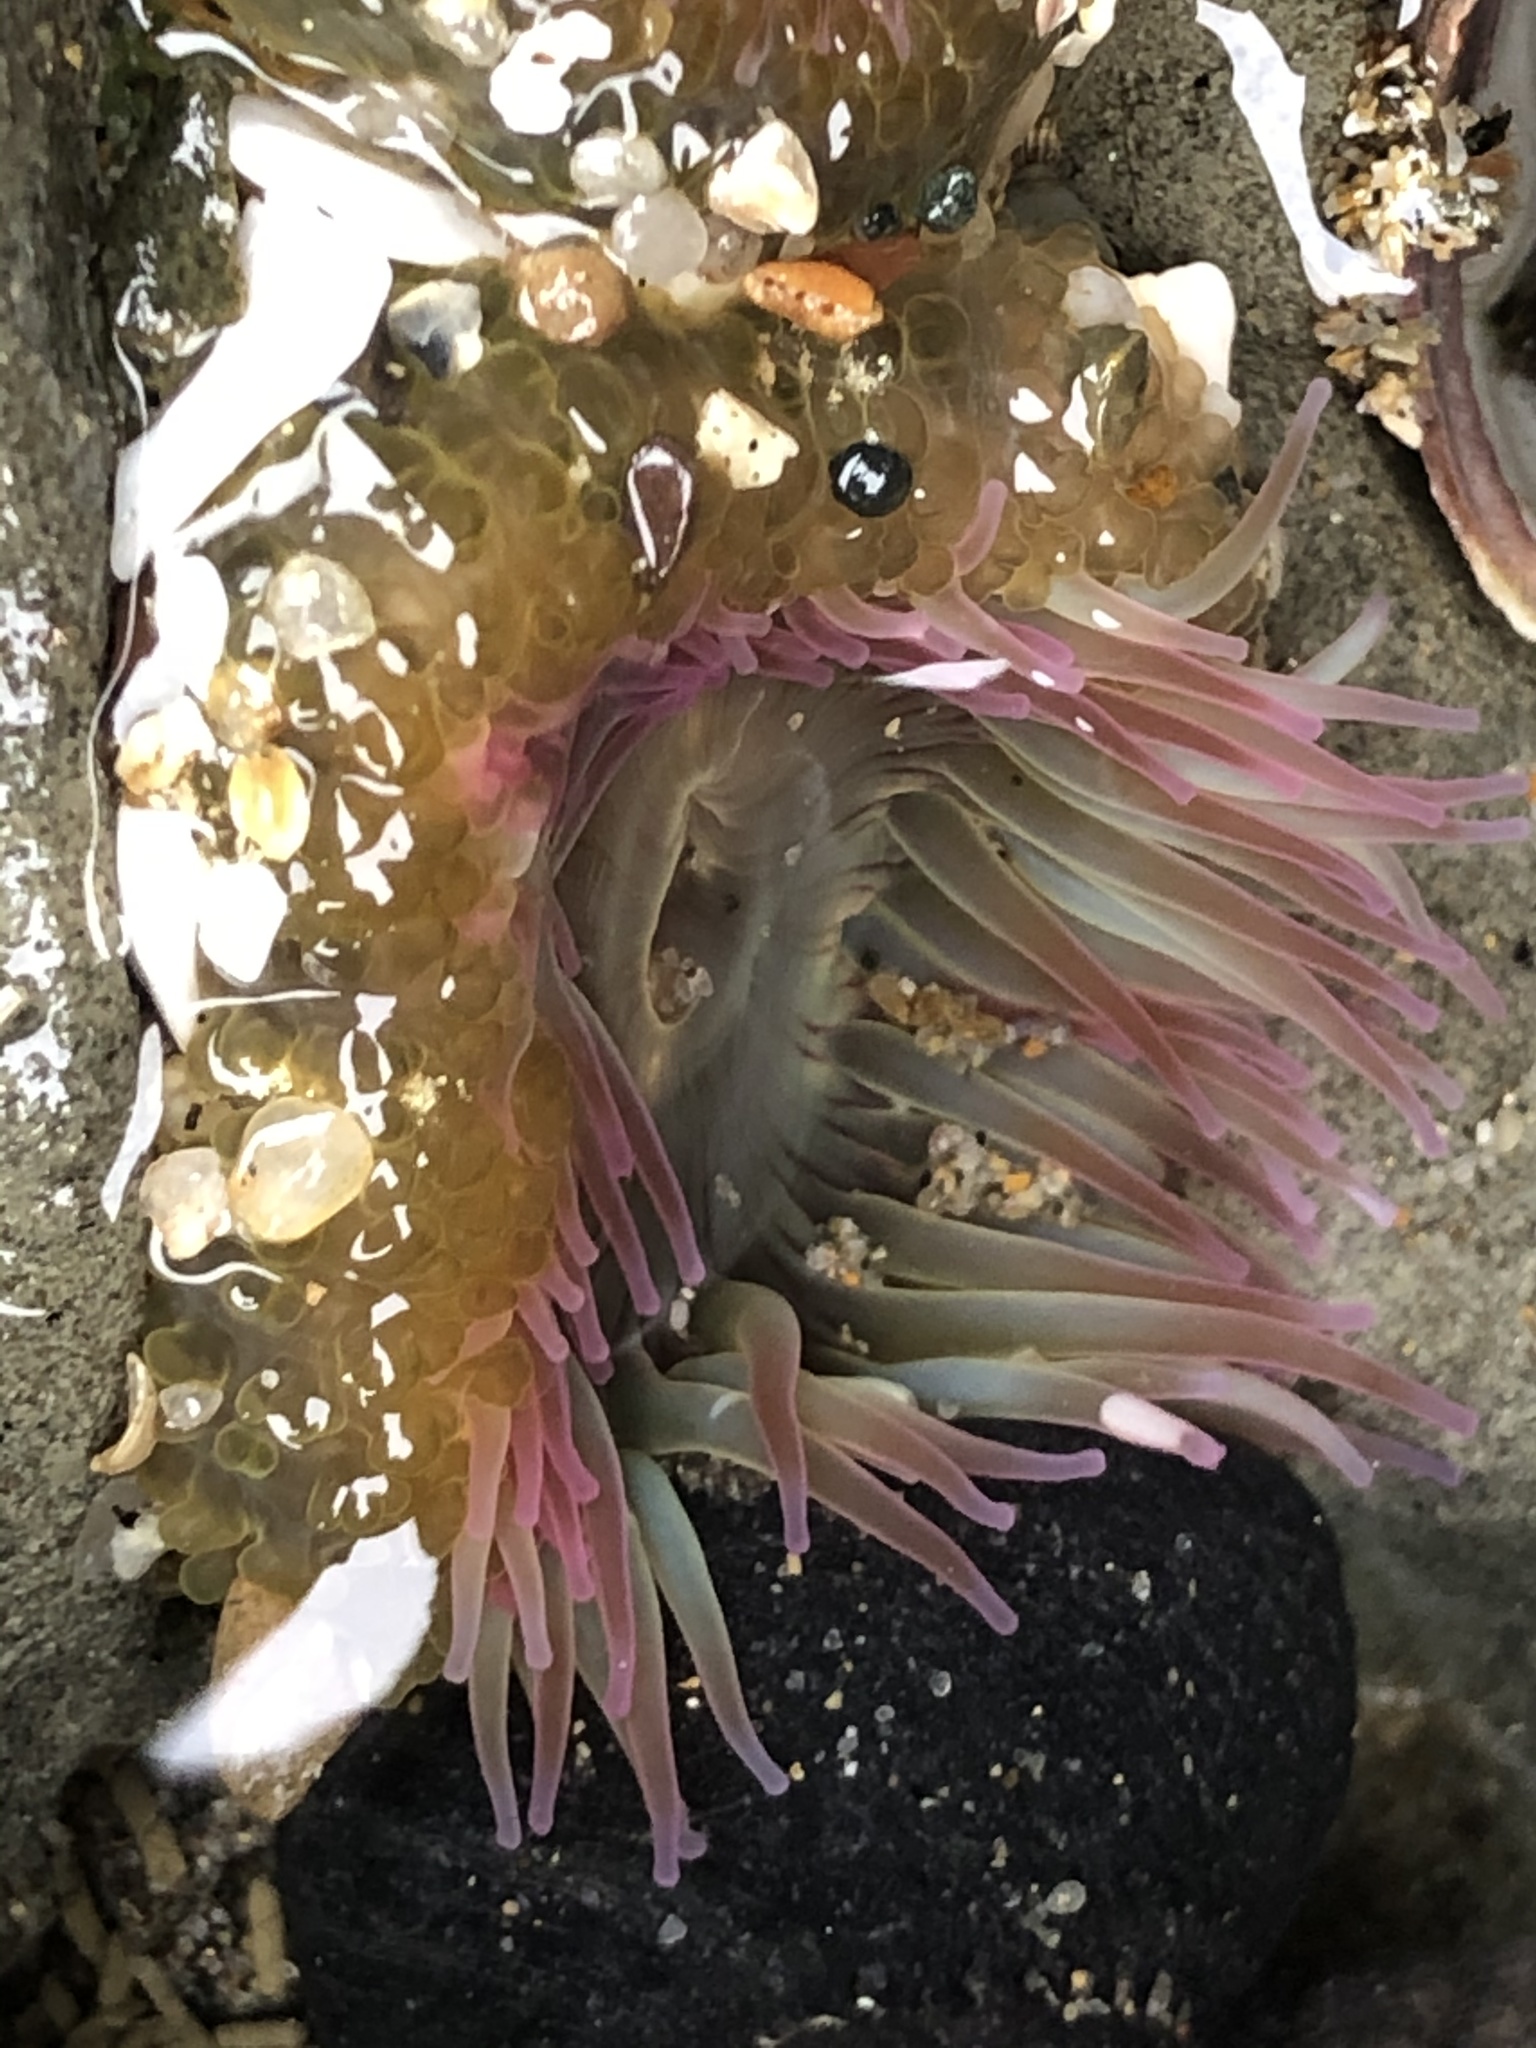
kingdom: Animalia
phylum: Cnidaria
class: Anthozoa
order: Actiniaria
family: Actiniidae
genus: Anthopleura
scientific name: Anthopleura elegantissima
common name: Clonal anemone
